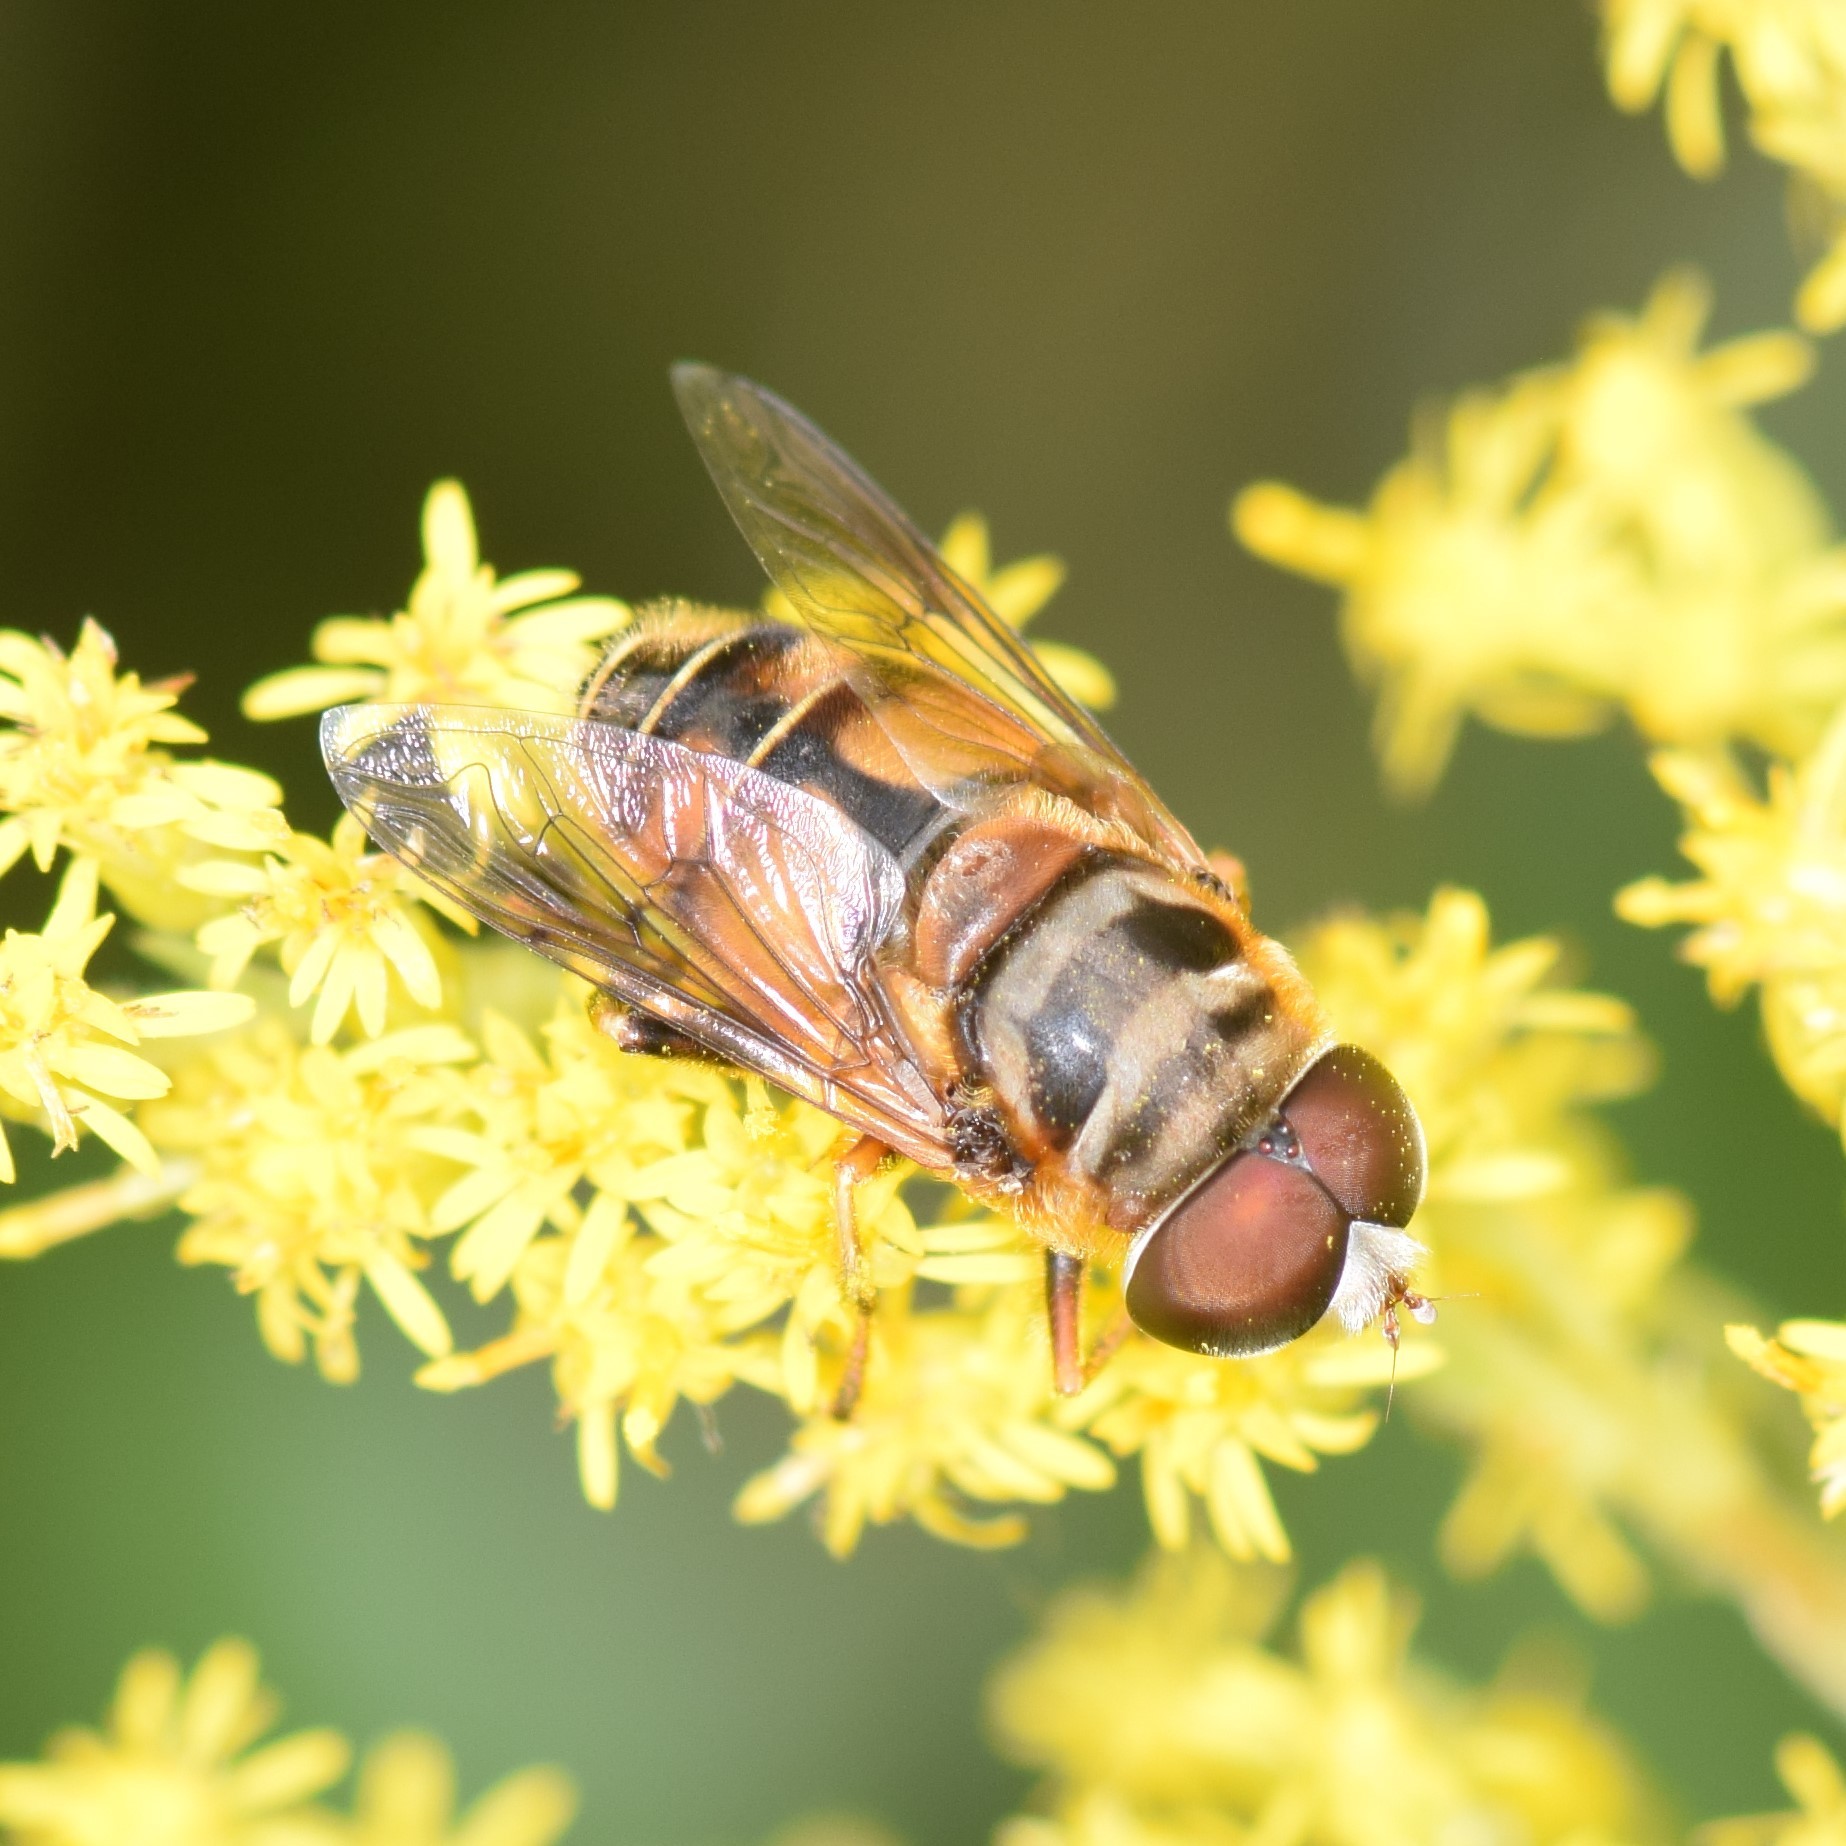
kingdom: Animalia
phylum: Arthropoda
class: Insecta
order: Diptera
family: Syrphidae
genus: Palpada
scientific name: Palpada vinetorum
